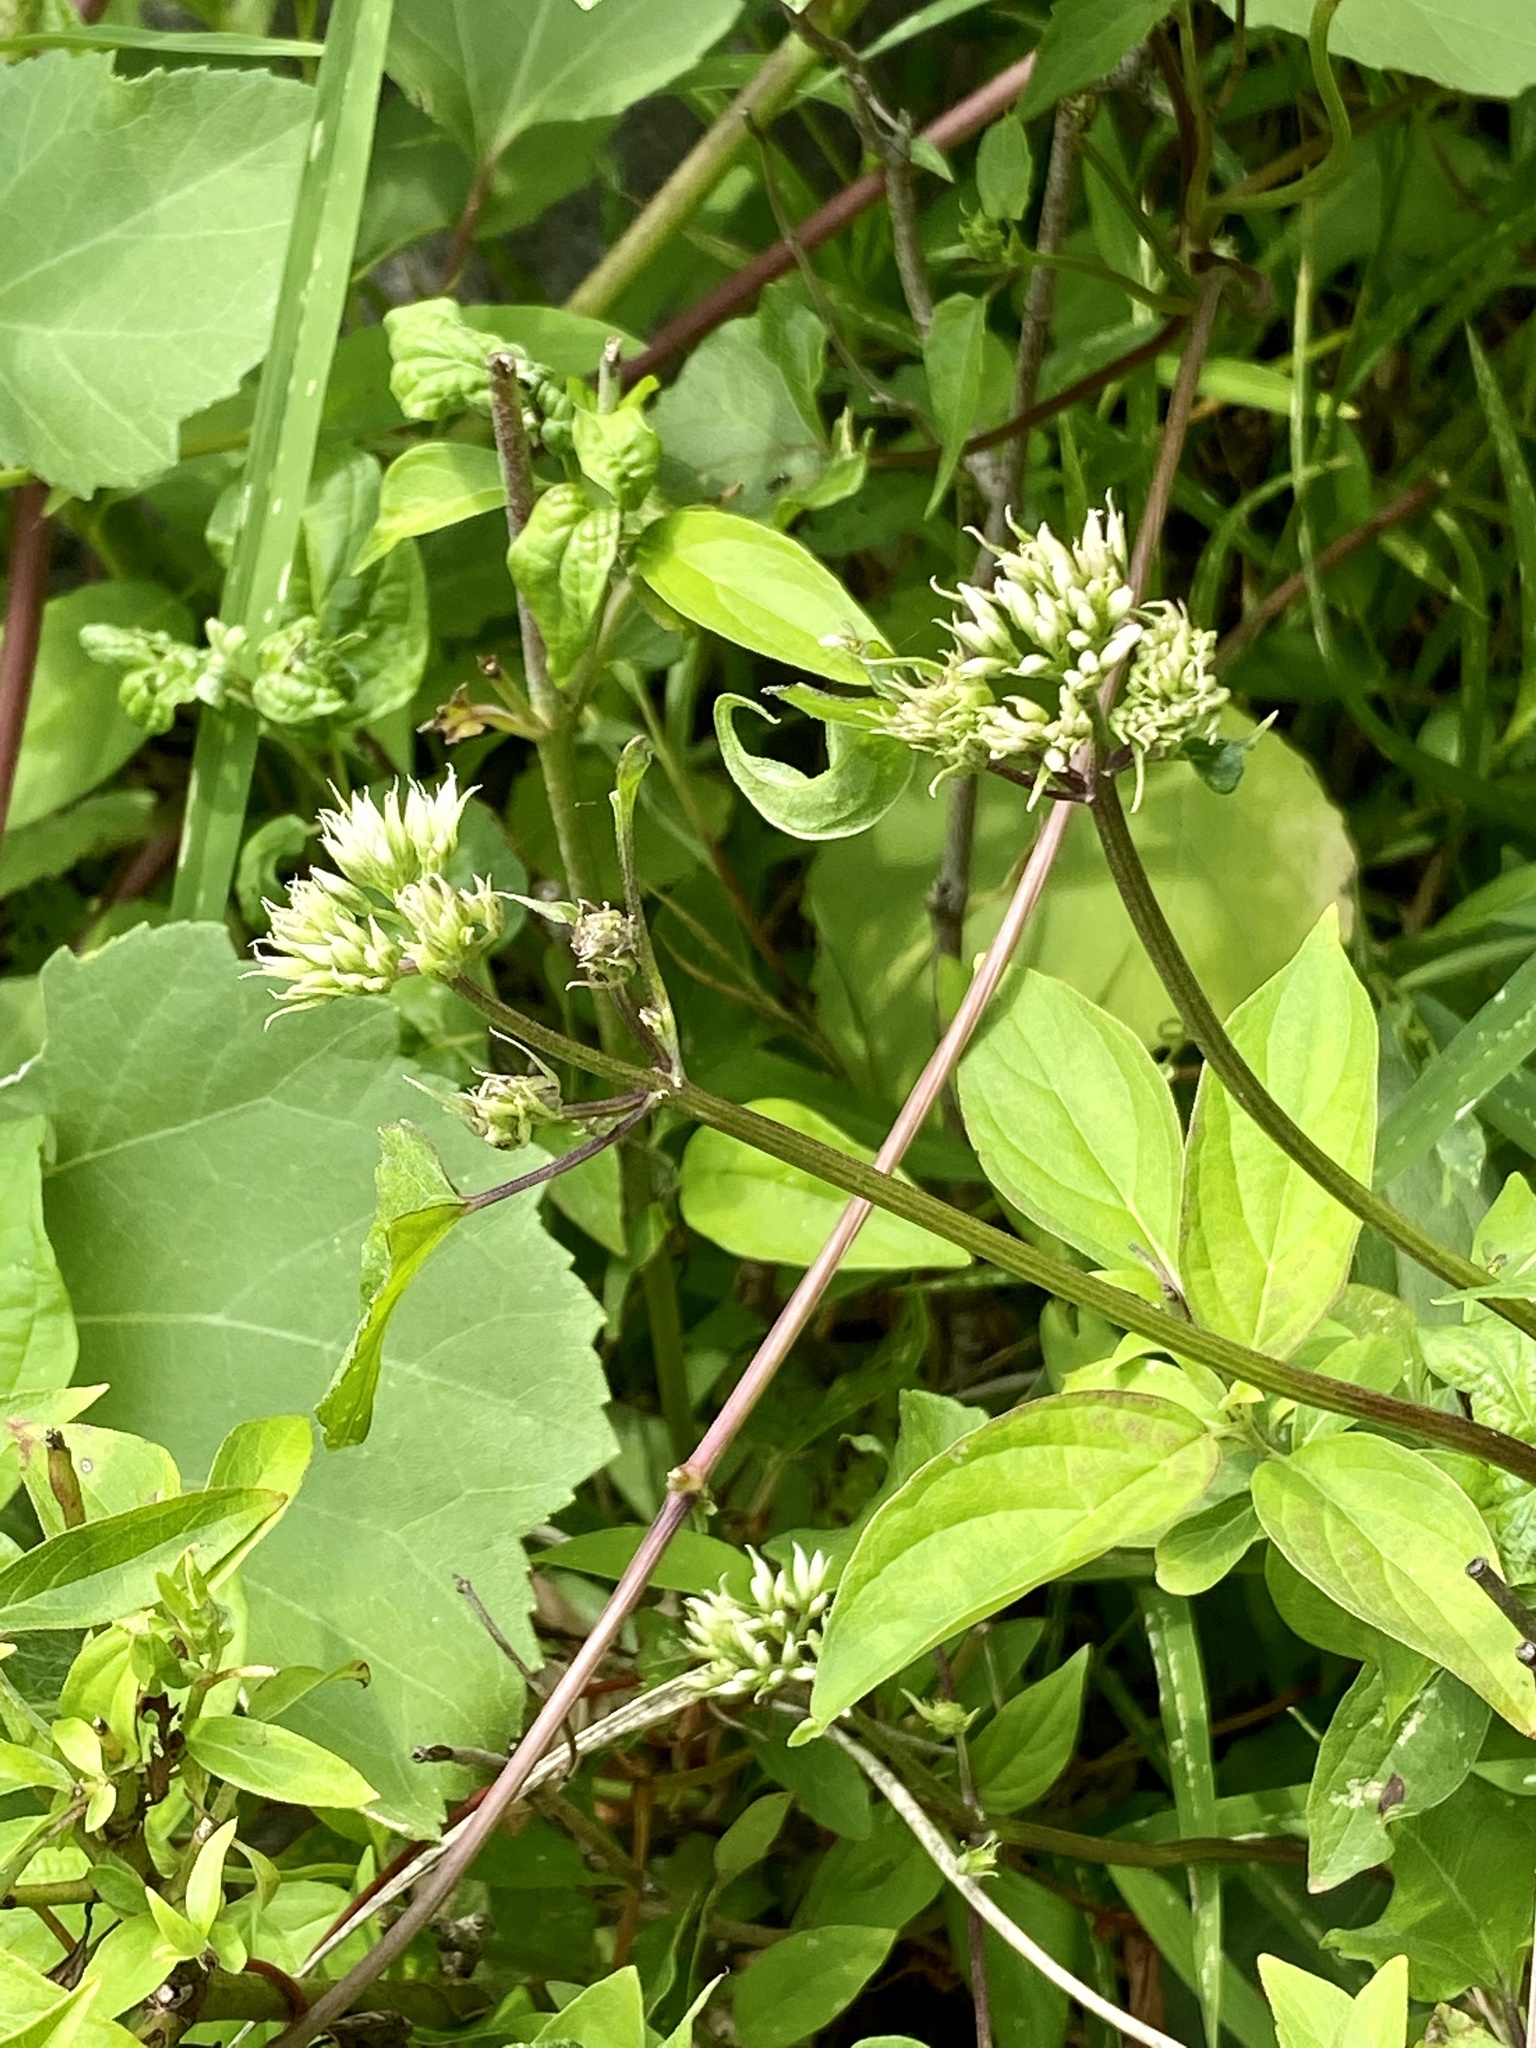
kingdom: Plantae
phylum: Tracheophyta
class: Magnoliopsida
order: Asterales
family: Asteraceae
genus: Mikania
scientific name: Mikania scandens
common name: Climbing hempvine
